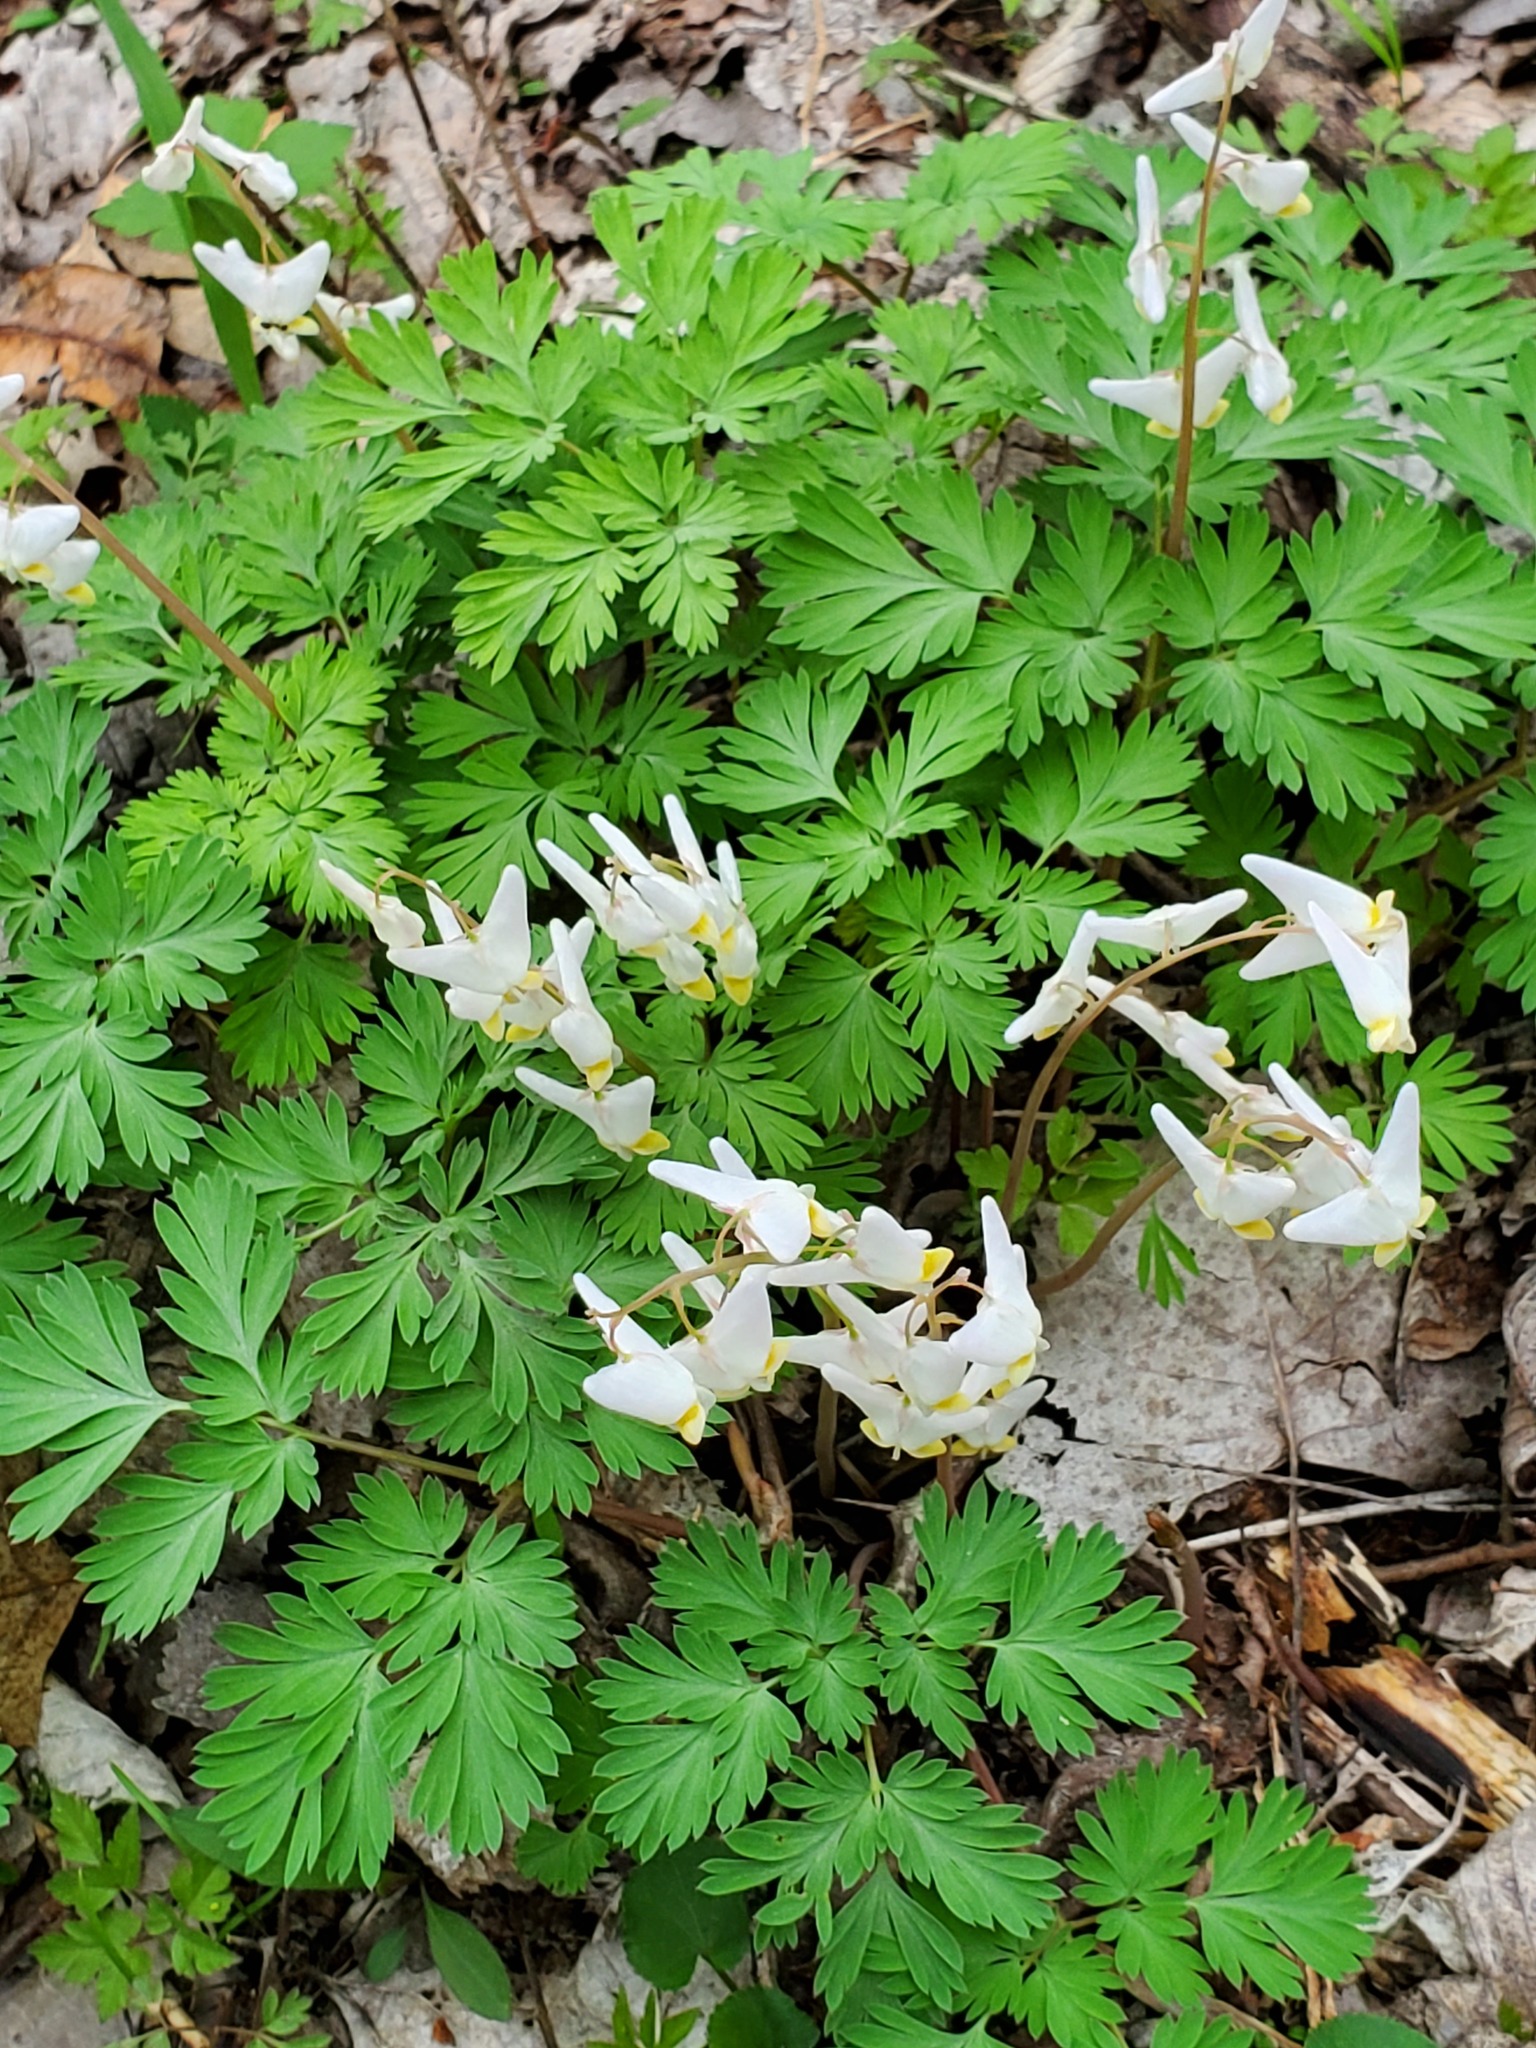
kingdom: Plantae
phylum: Tracheophyta
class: Magnoliopsida
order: Ranunculales
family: Papaveraceae
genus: Dicentra
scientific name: Dicentra cucullaria
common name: Dutchman's breeches
